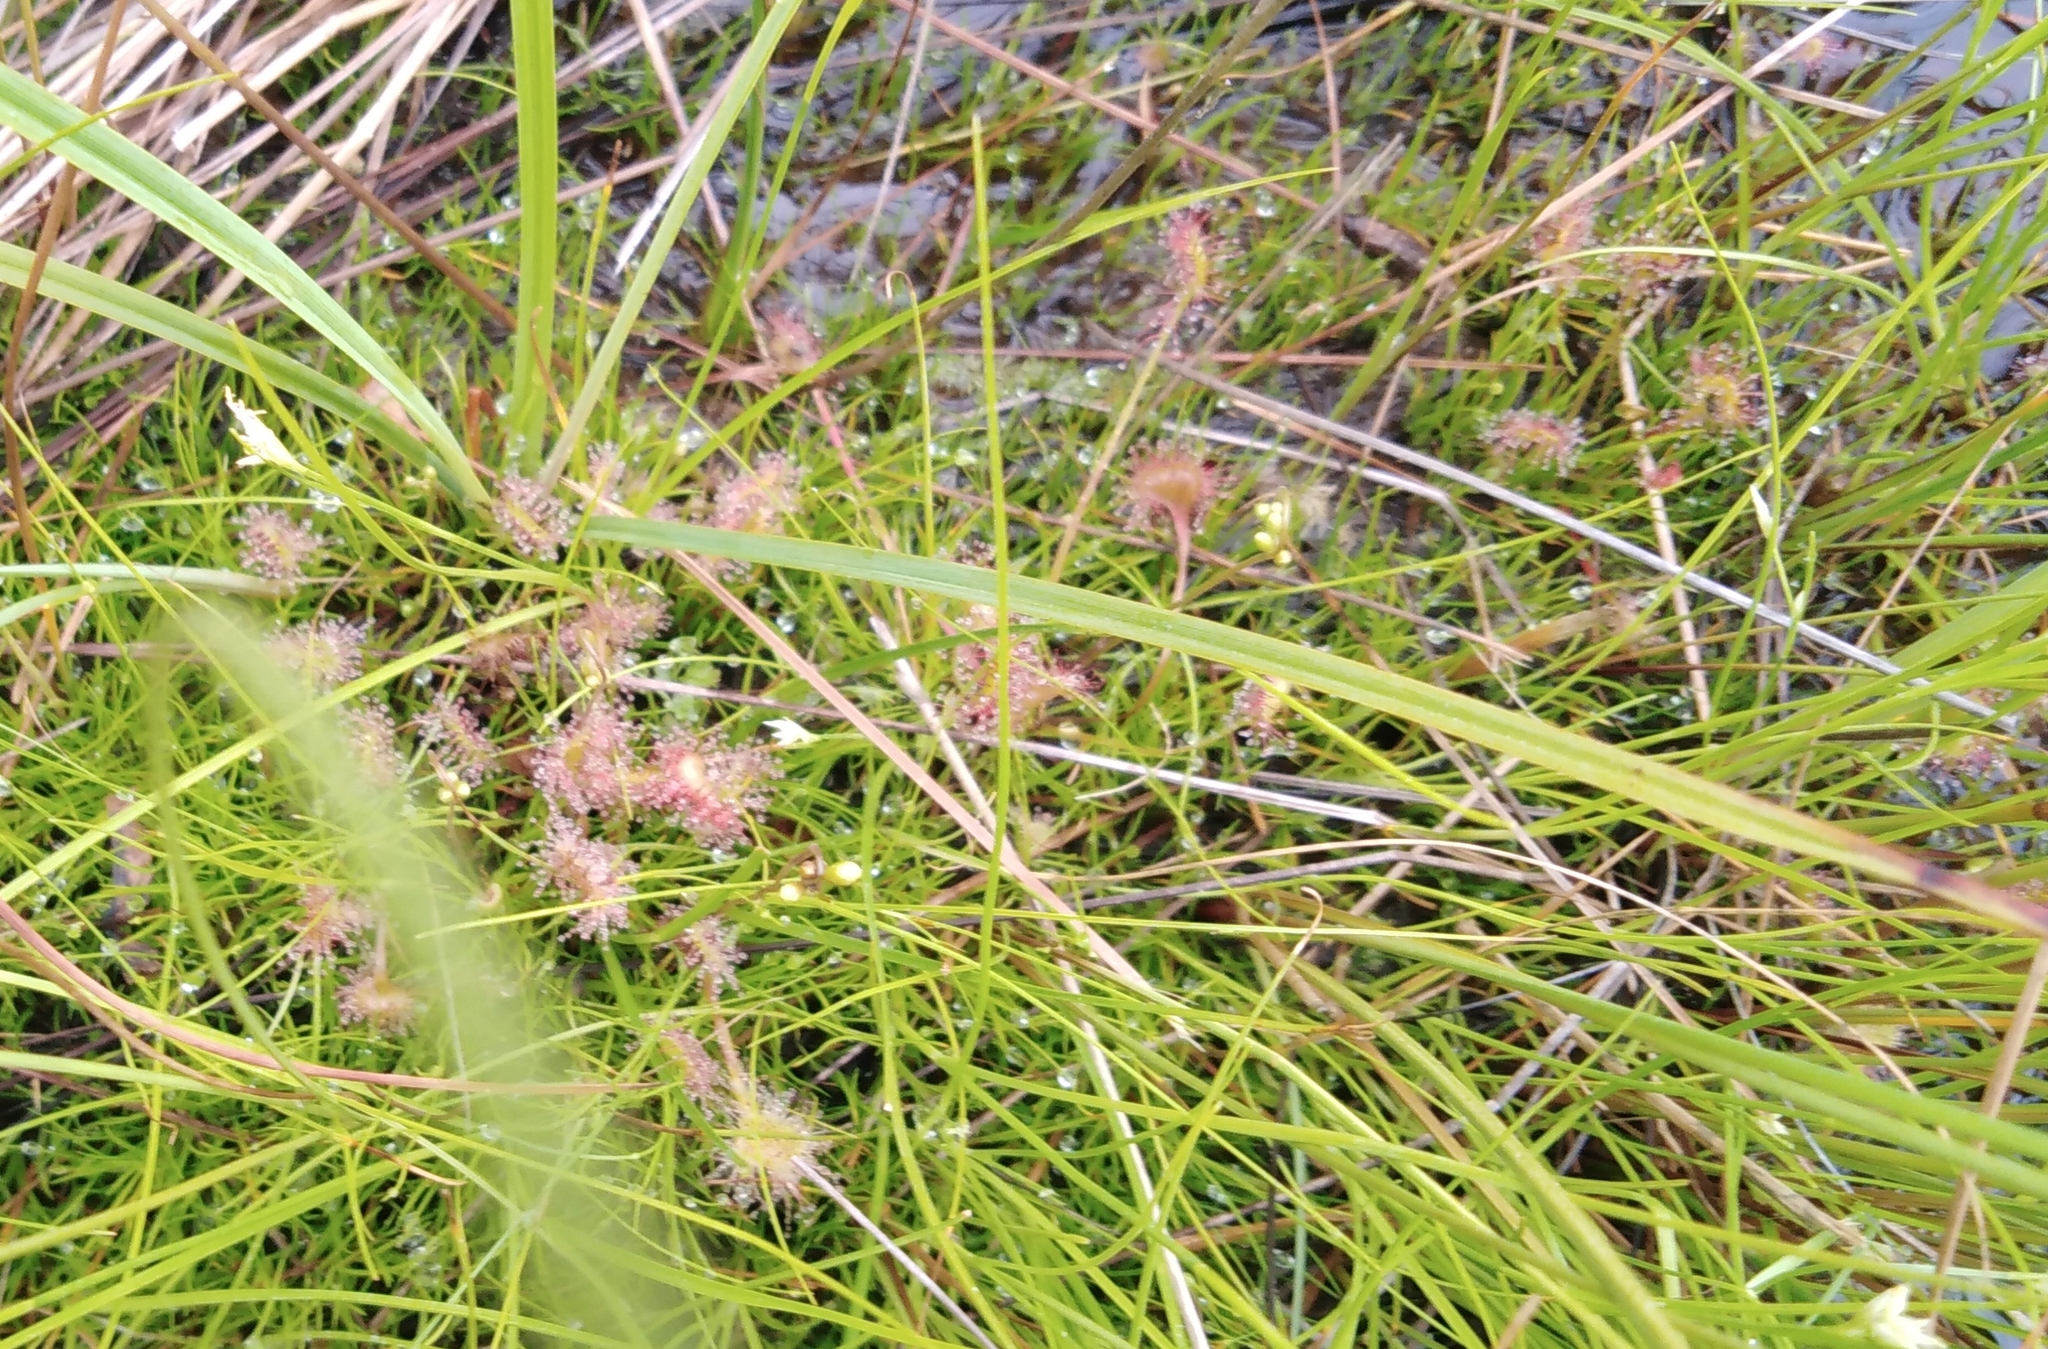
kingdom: Plantae
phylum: Tracheophyta
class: Magnoliopsida
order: Caryophyllales
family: Droseraceae
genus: Drosera
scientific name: Drosera rotundifolia
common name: Round-leaved sundew
